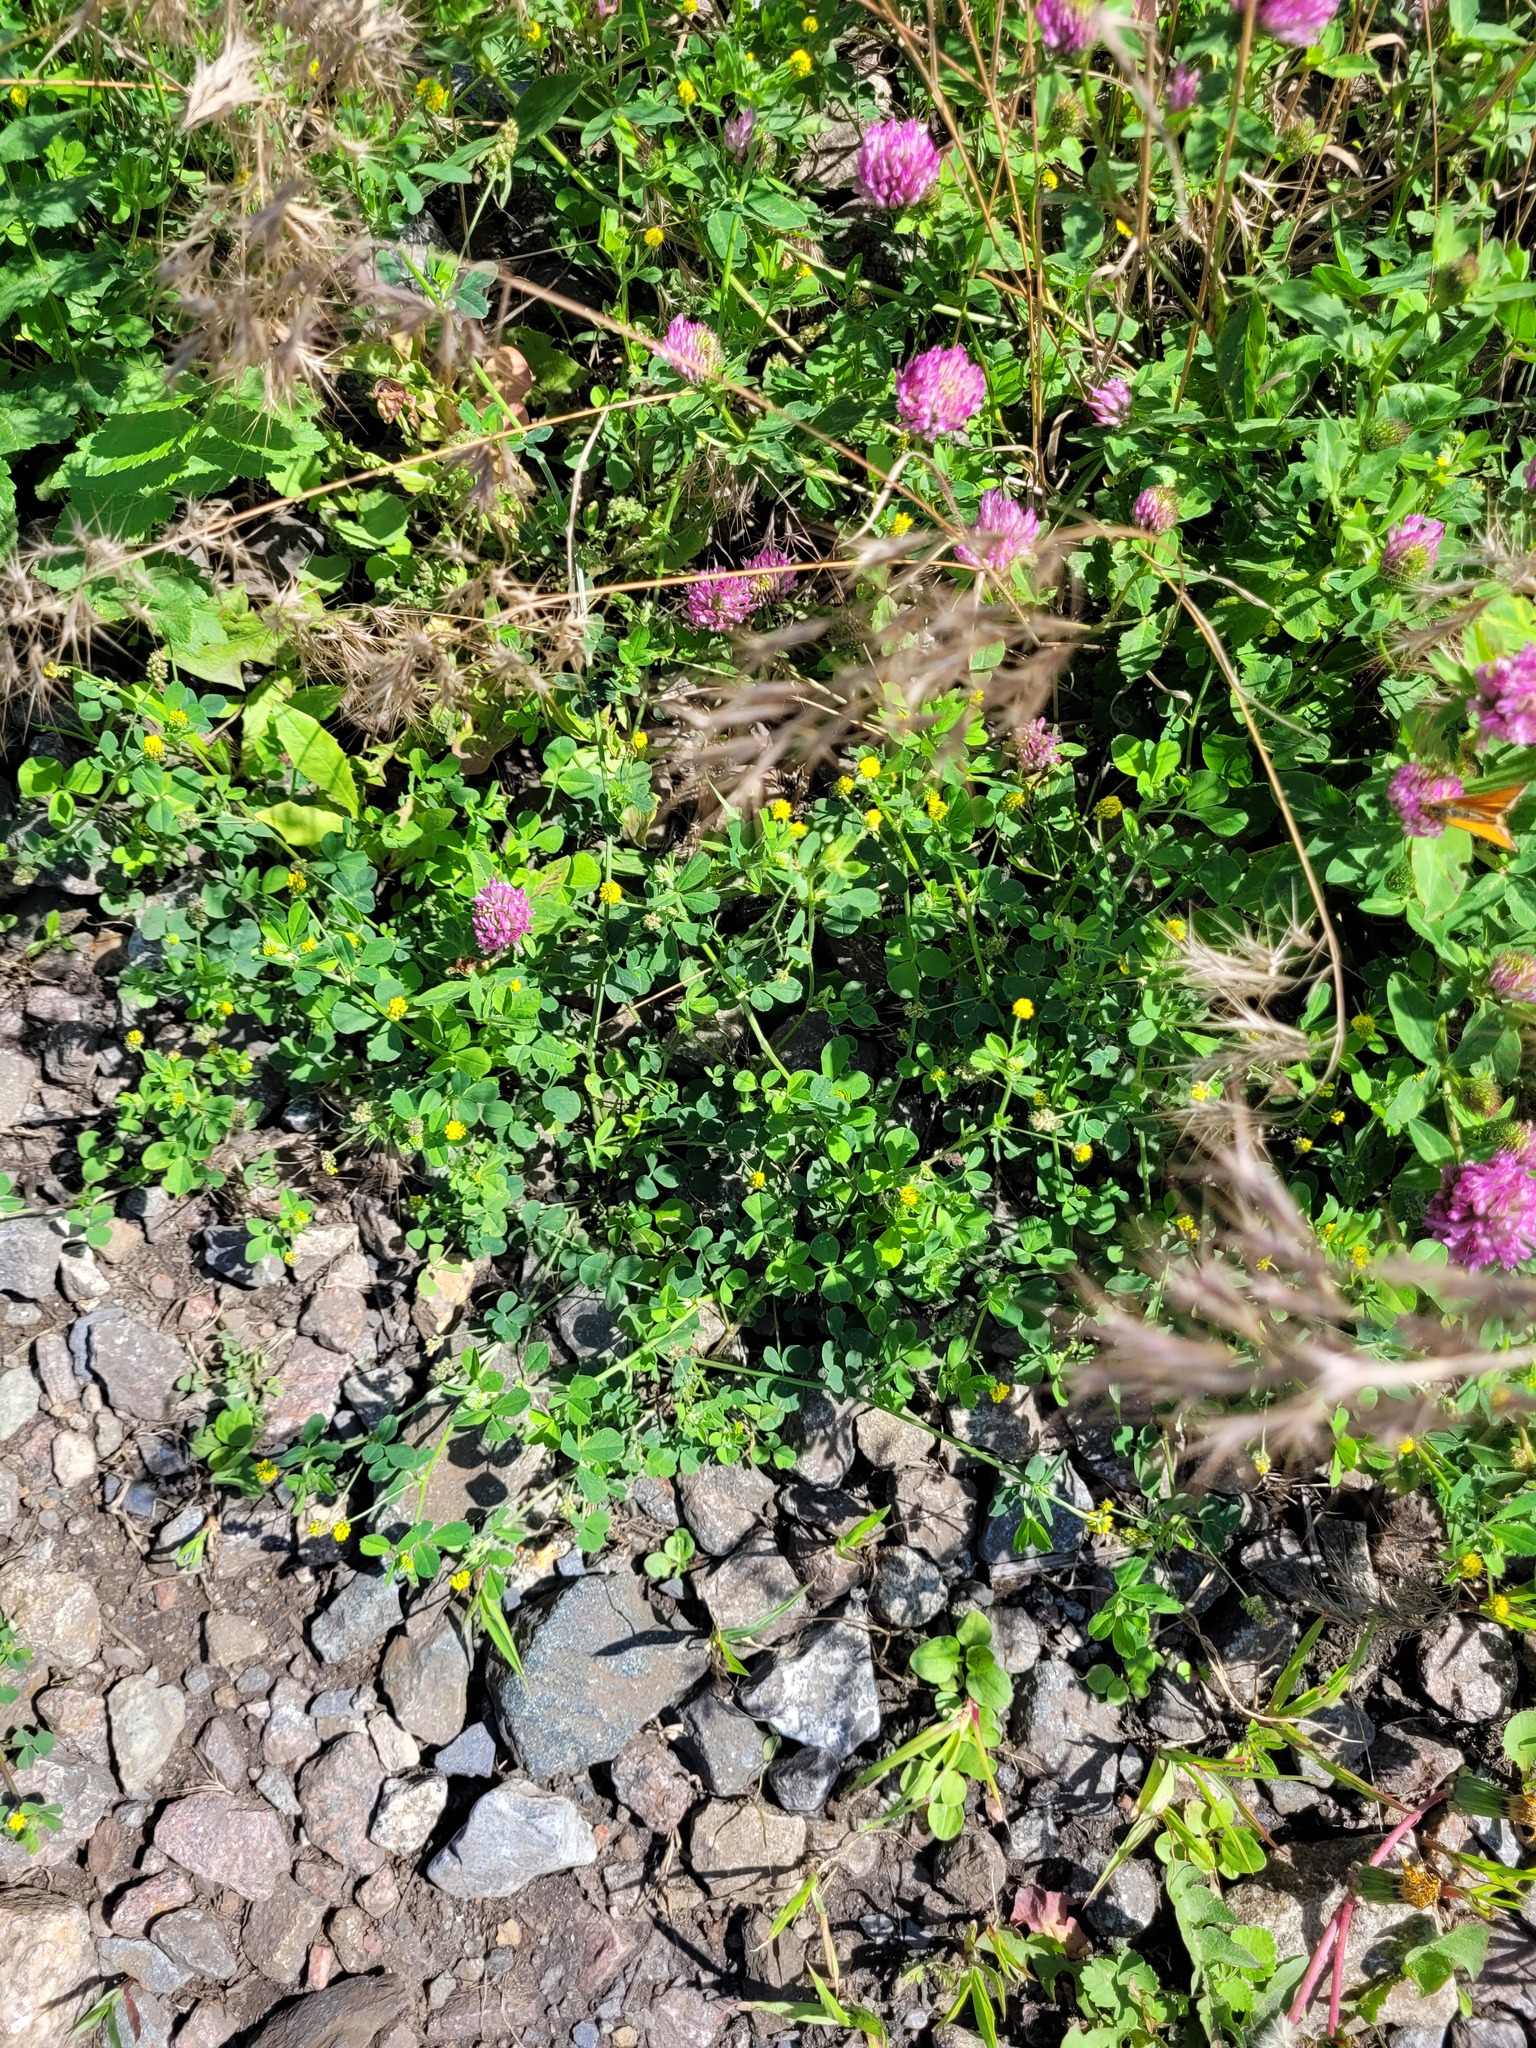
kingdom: Plantae
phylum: Tracheophyta
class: Magnoliopsida
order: Fabales
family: Fabaceae
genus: Medicago
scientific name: Medicago lupulina
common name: Black medick
